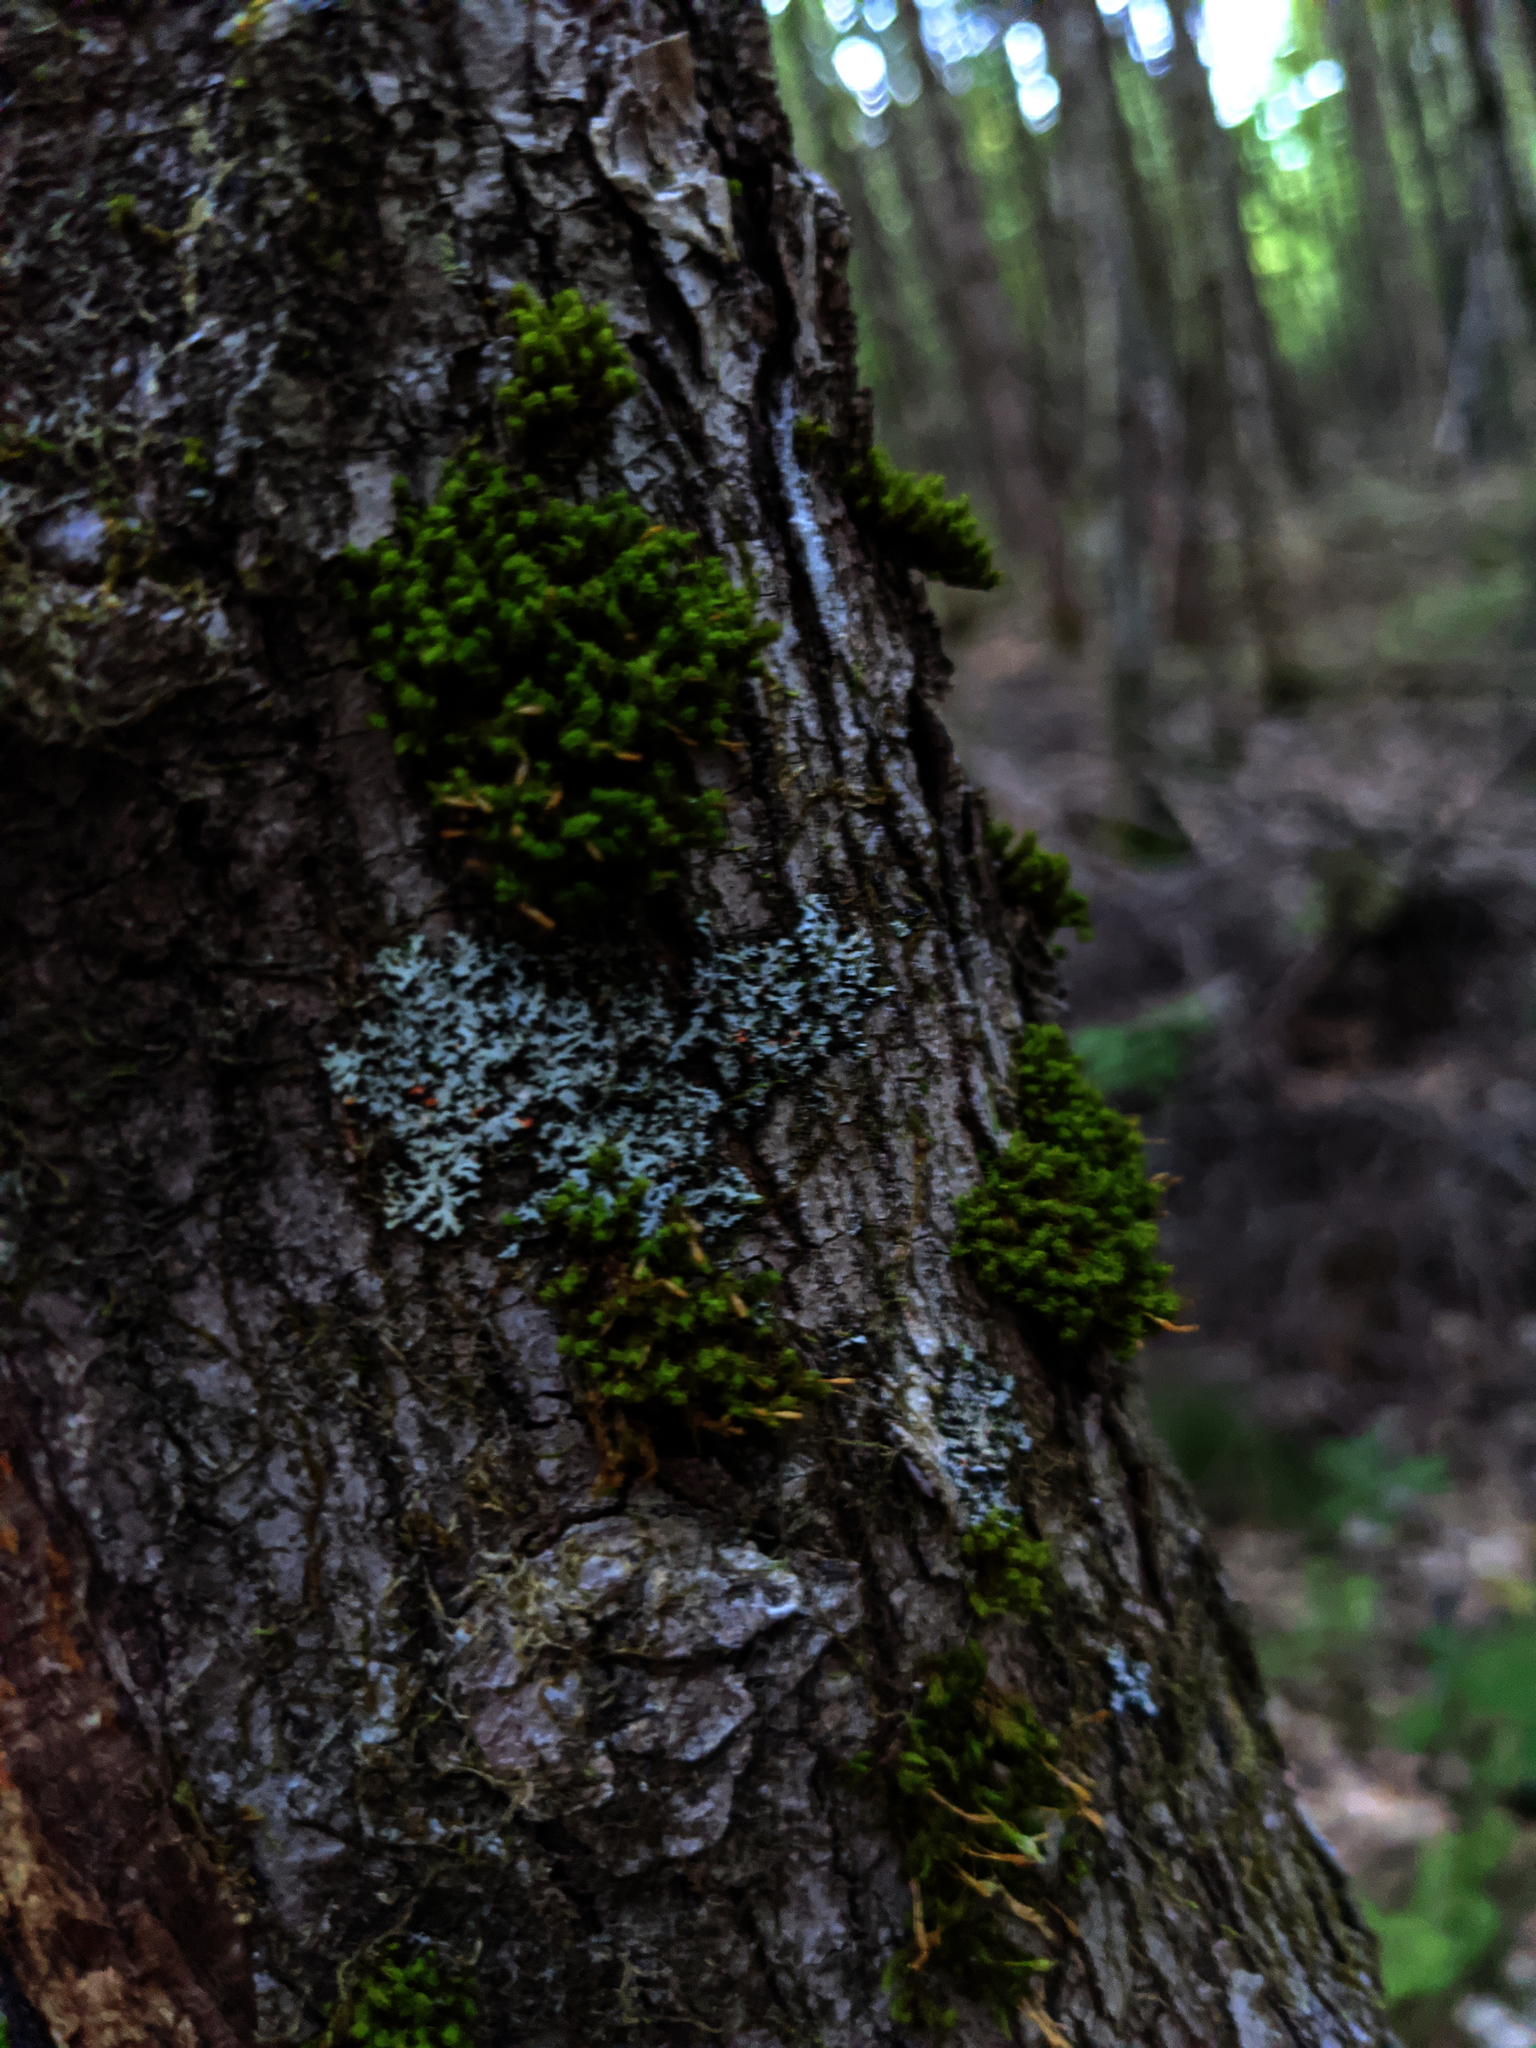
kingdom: Plantae
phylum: Bryophyta
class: Bryopsida
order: Orthotrichales
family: Orthotrichaceae
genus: Ulota
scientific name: Ulota crispa
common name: Crisped pincushion moss
